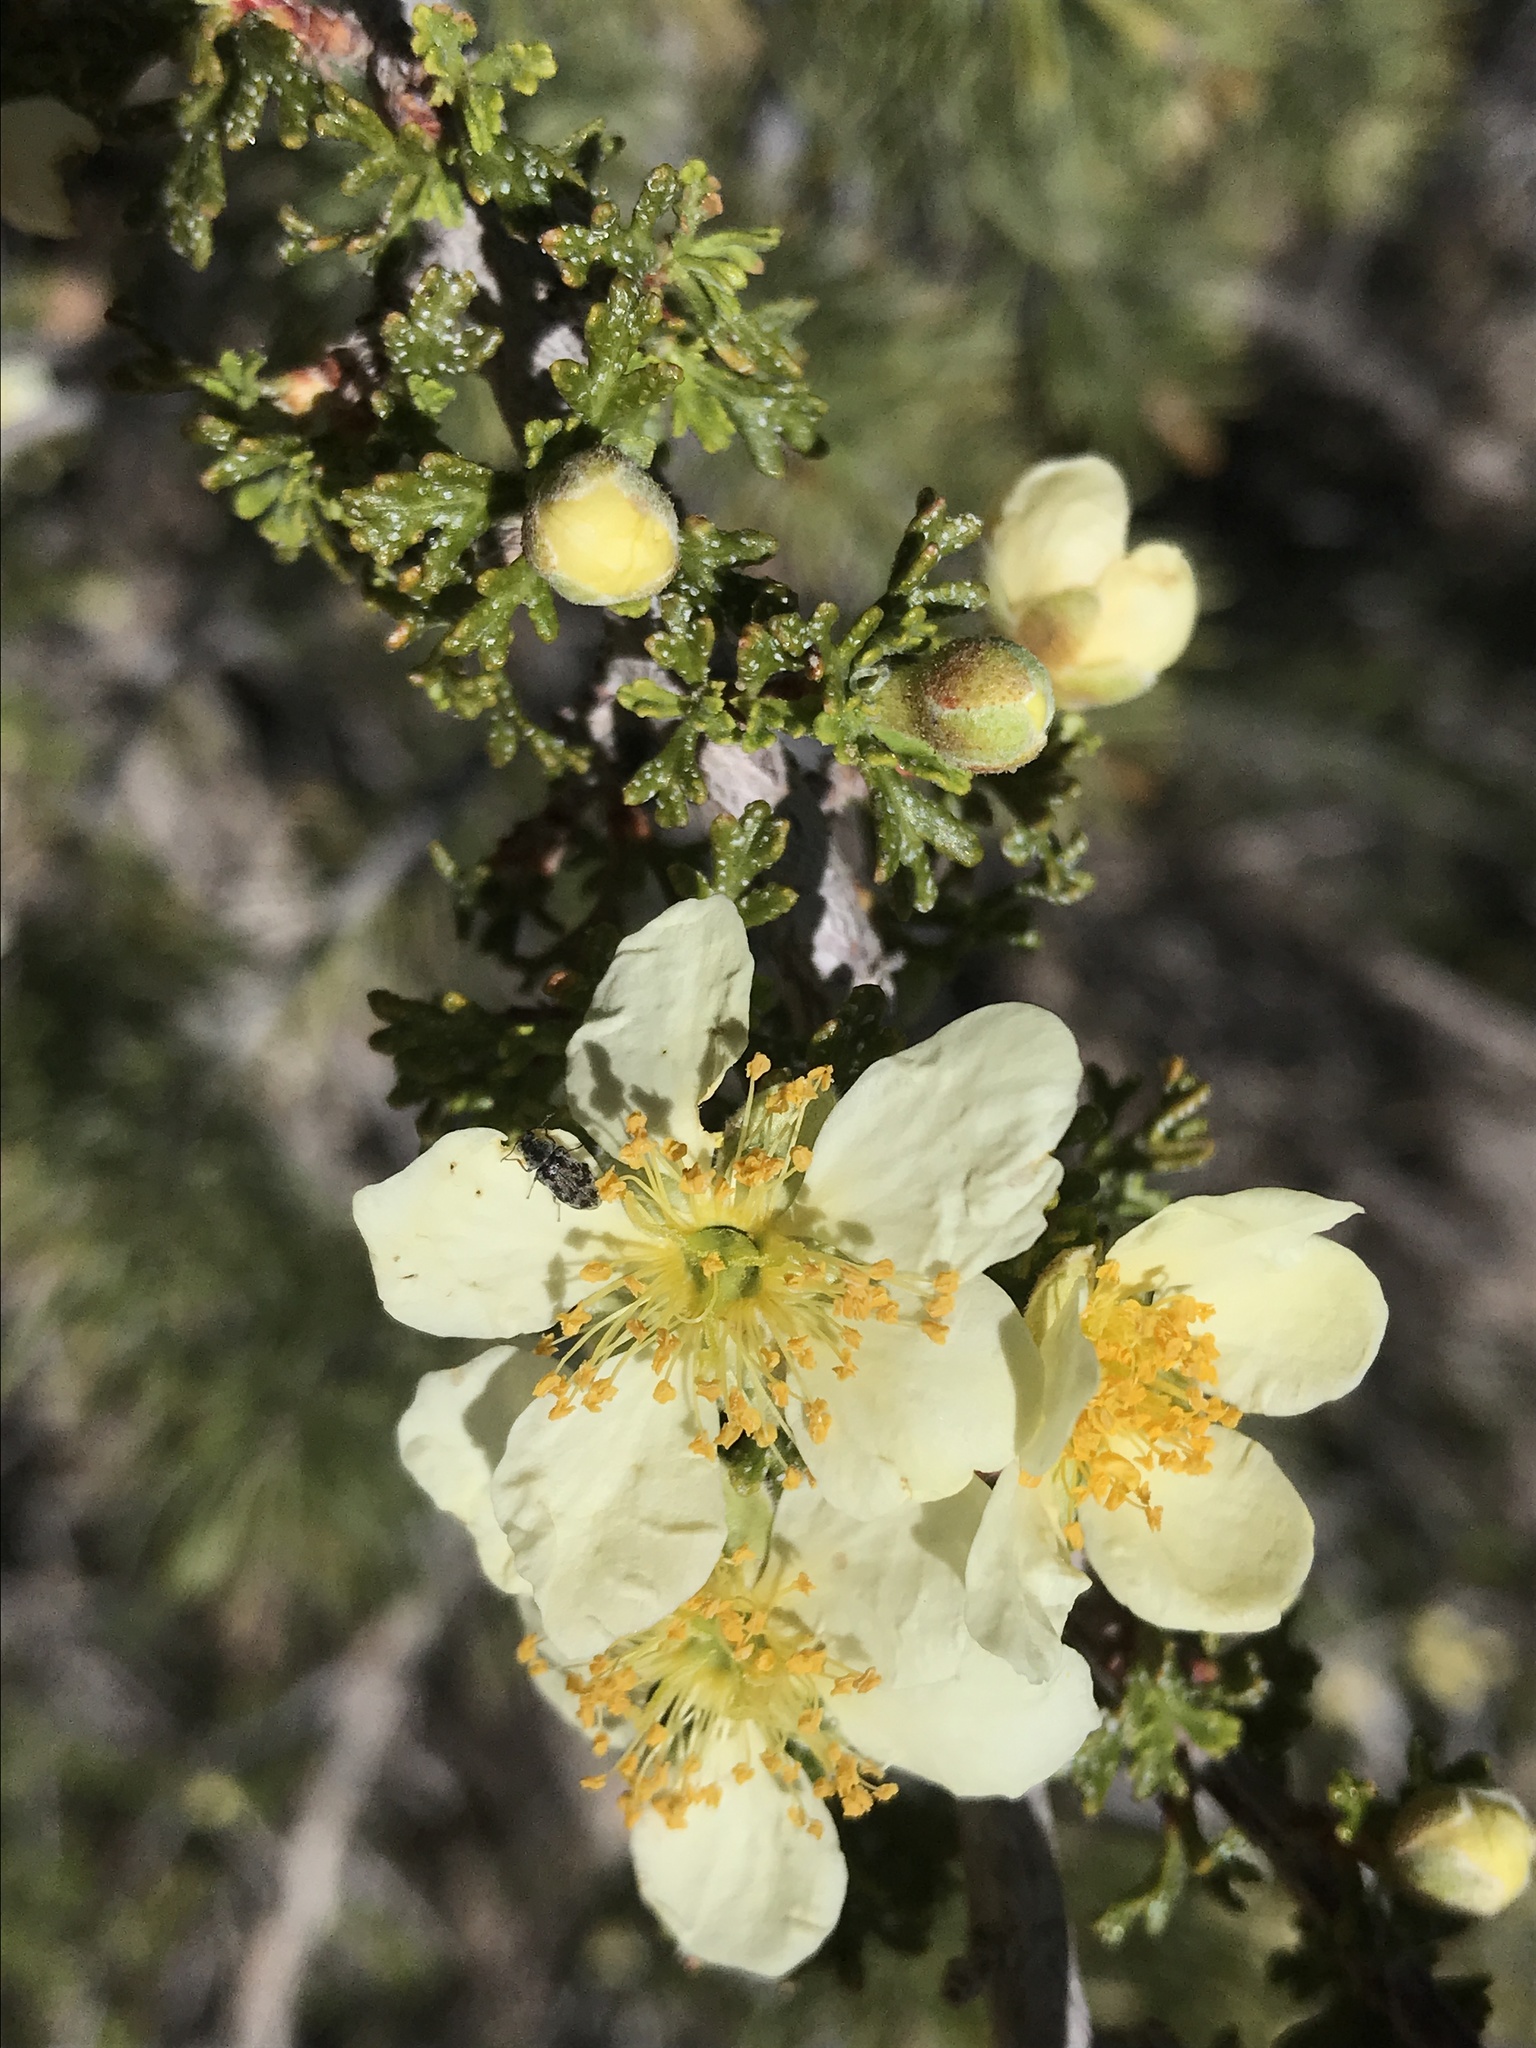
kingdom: Plantae
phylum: Tracheophyta
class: Magnoliopsida
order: Rosales
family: Rosaceae
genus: Purshia
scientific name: Purshia stansburiana
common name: Stansbury's cliffrose
